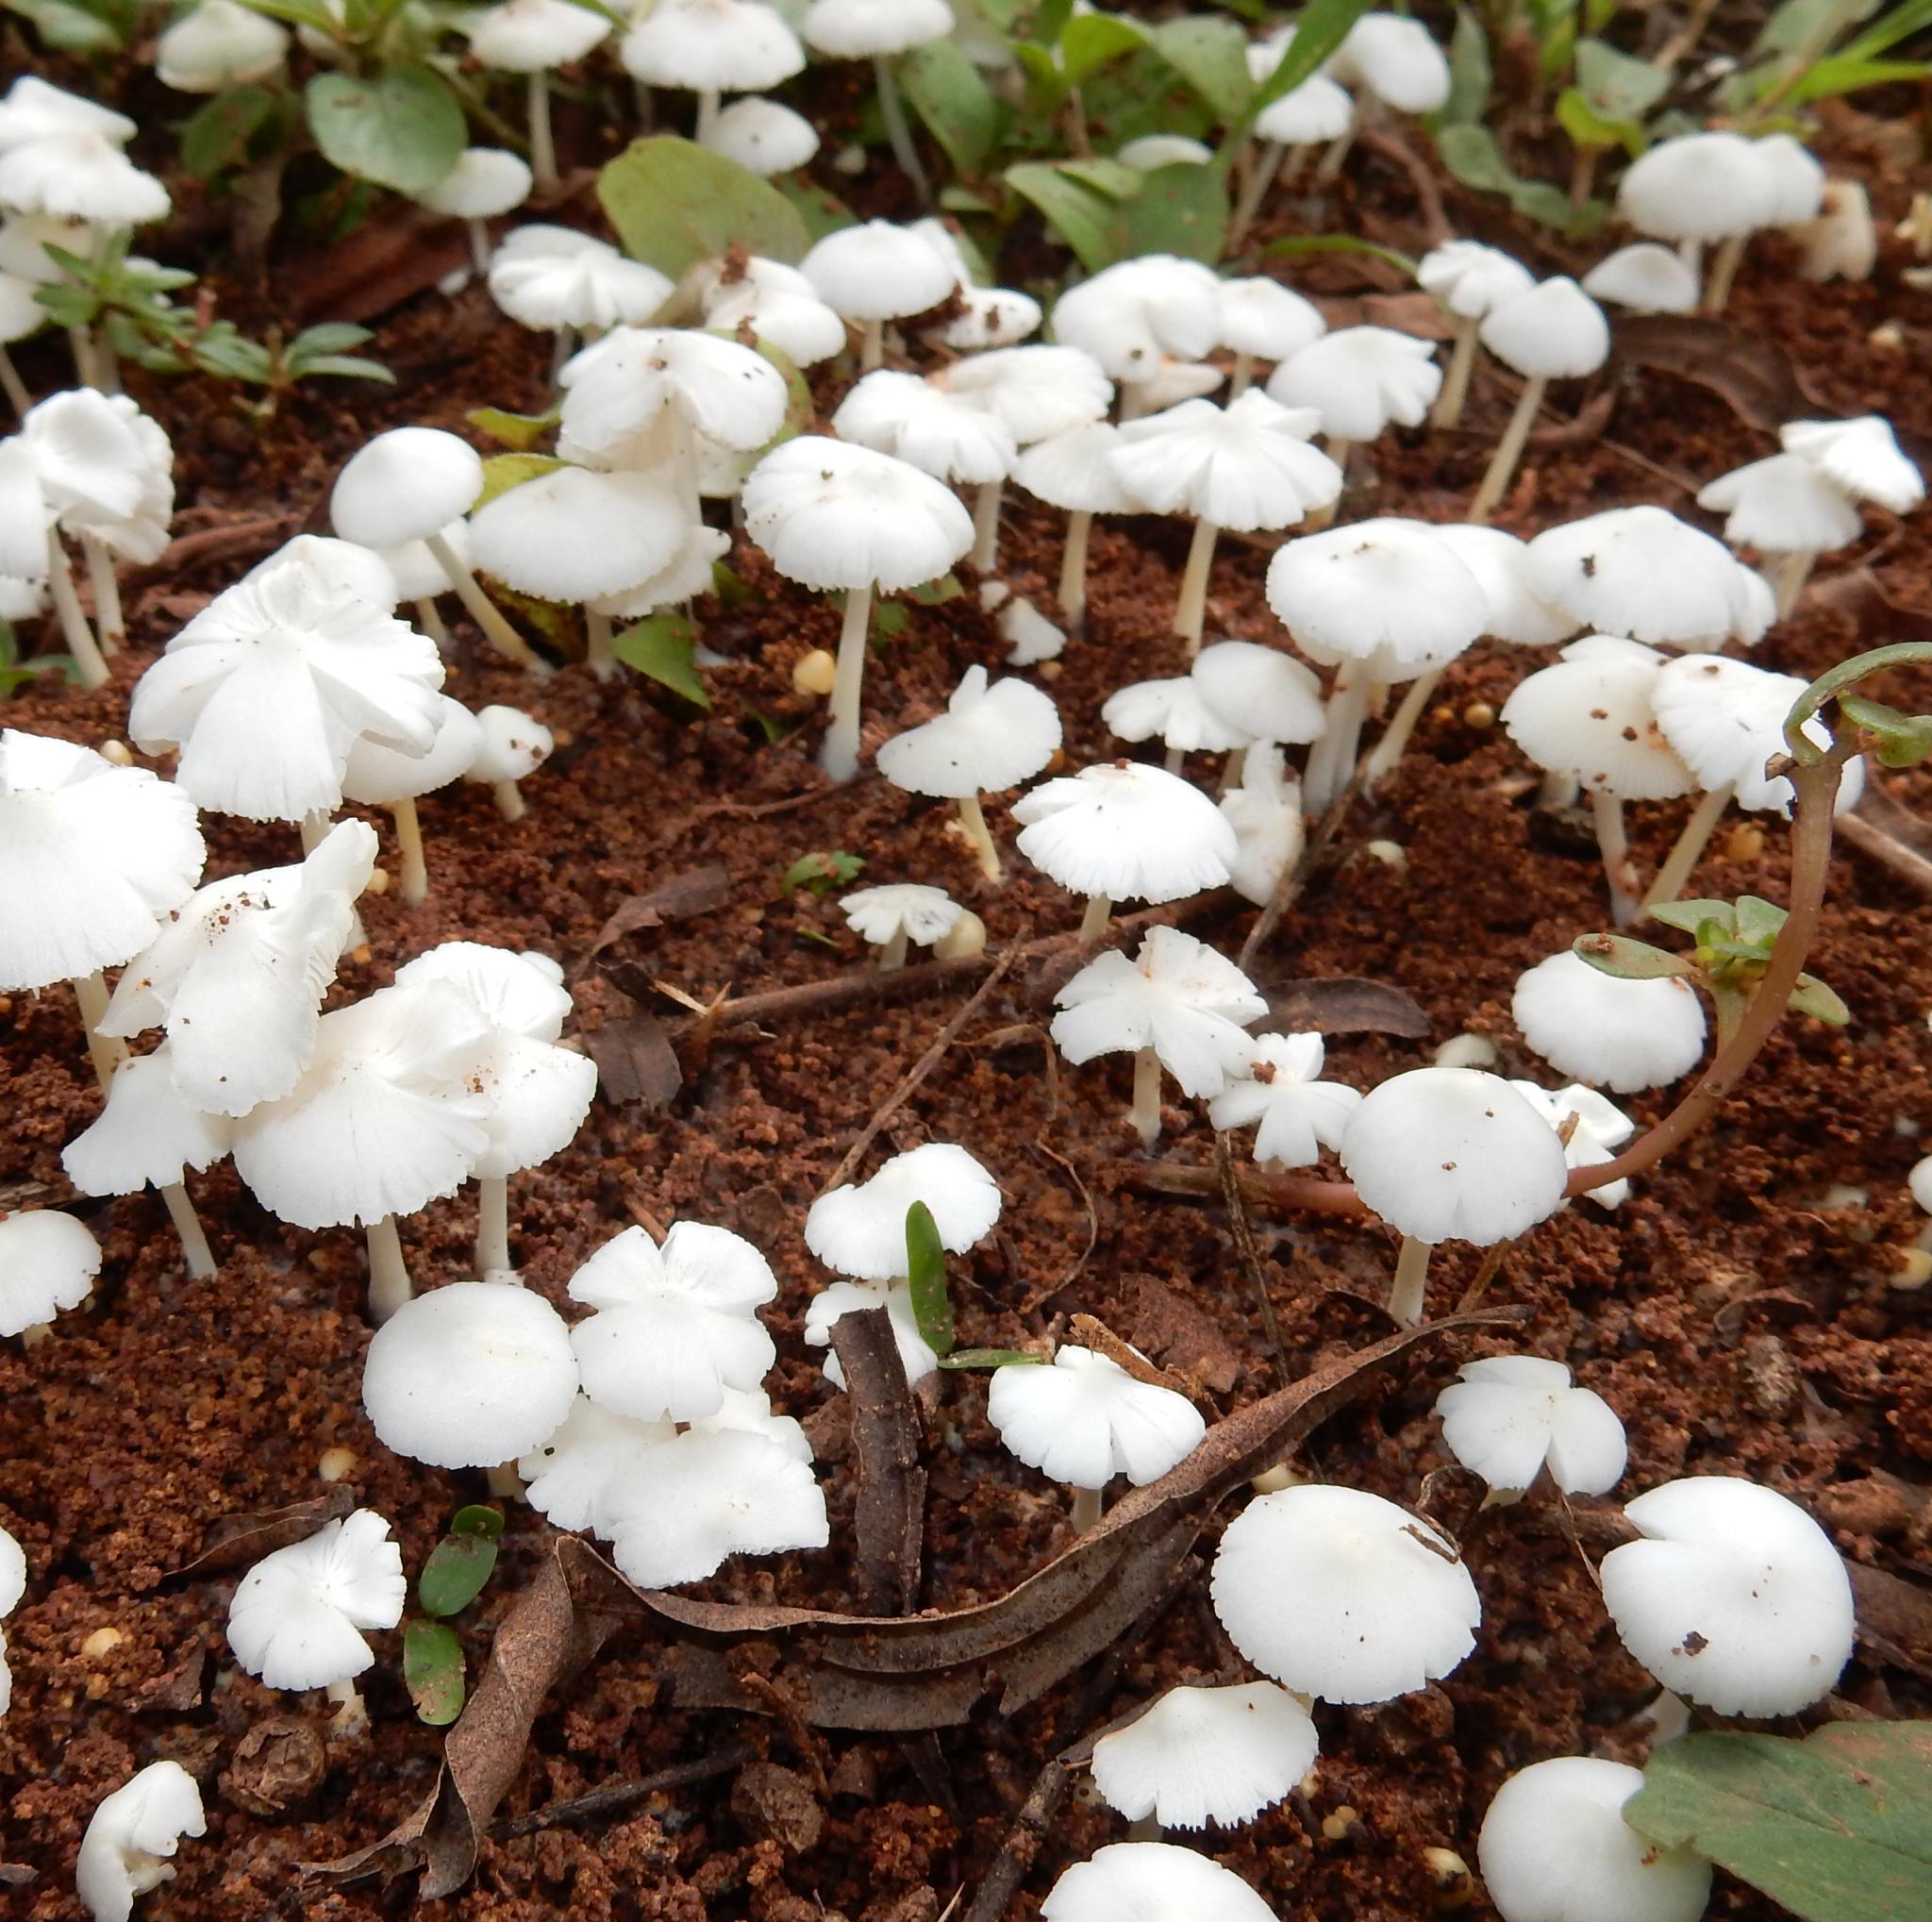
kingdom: Fungi
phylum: Basidiomycota
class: Agaricomycetes
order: Agaricales
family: Lyophyllaceae
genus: Termitomyces
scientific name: Termitomyces microcarpus
